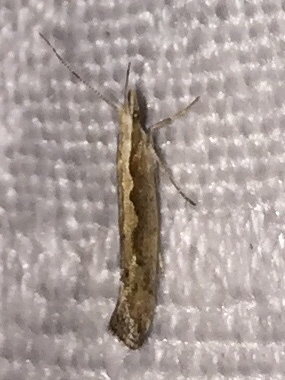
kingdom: Animalia
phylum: Arthropoda
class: Insecta
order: Lepidoptera
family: Plutellidae
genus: Plutella
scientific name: Plutella xylostella
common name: Diamond-back moth
